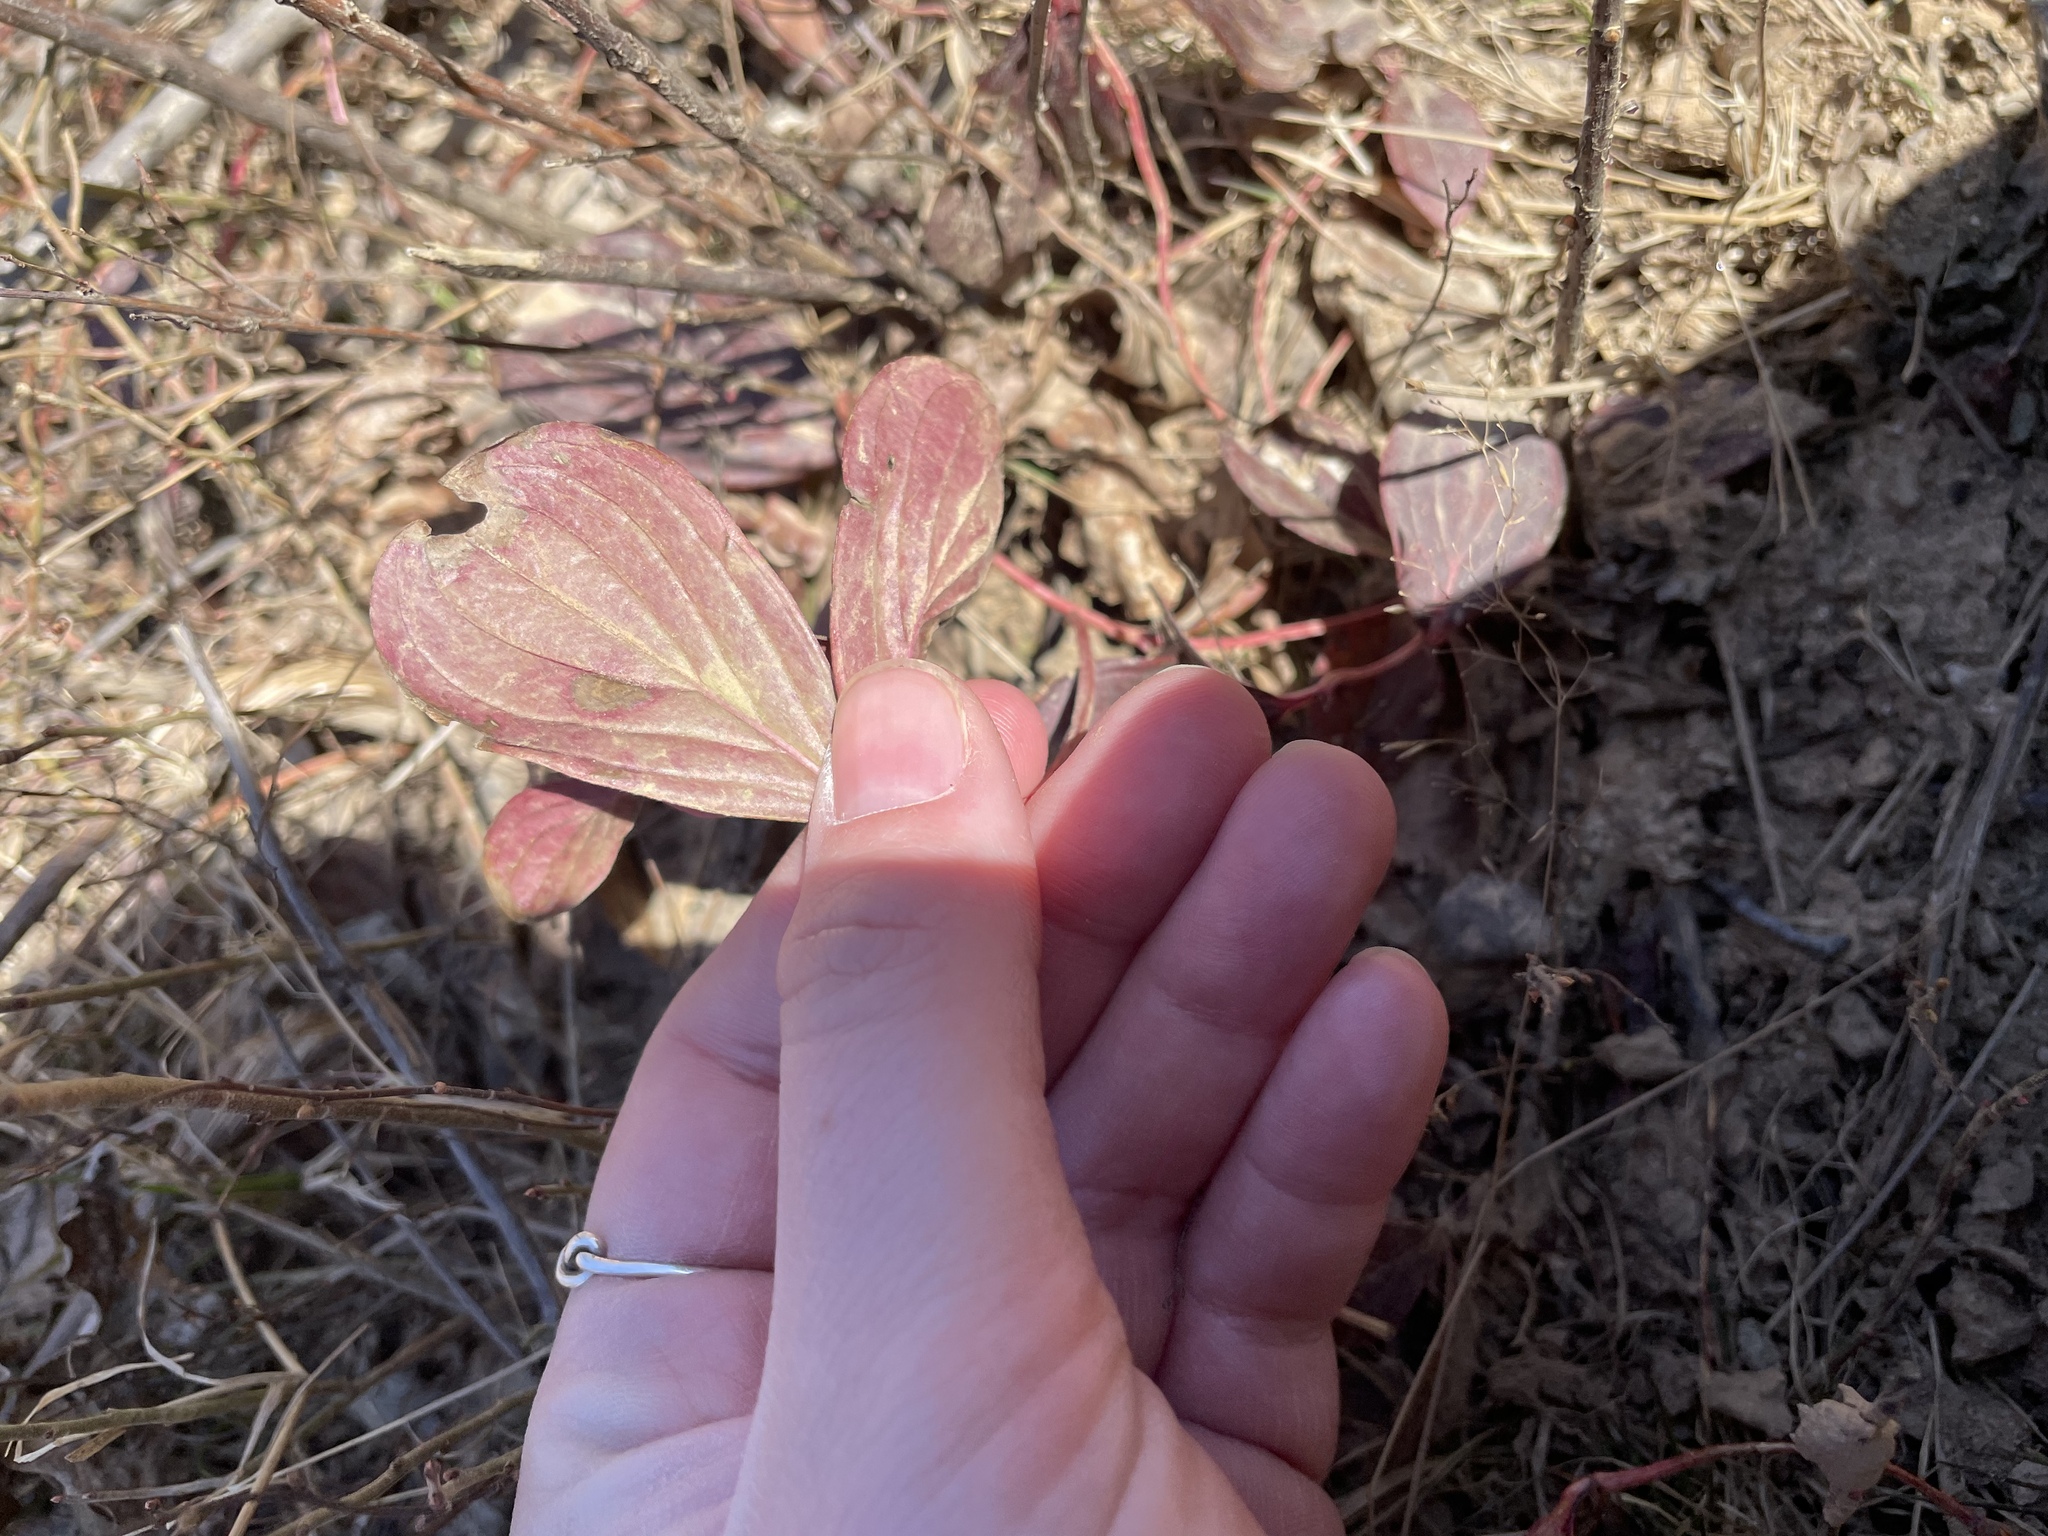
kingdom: Plantae
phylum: Tracheophyta
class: Magnoliopsida
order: Cornales
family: Cornaceae
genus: Cornus
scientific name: Cornus canadensis
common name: Creeping dogwood
